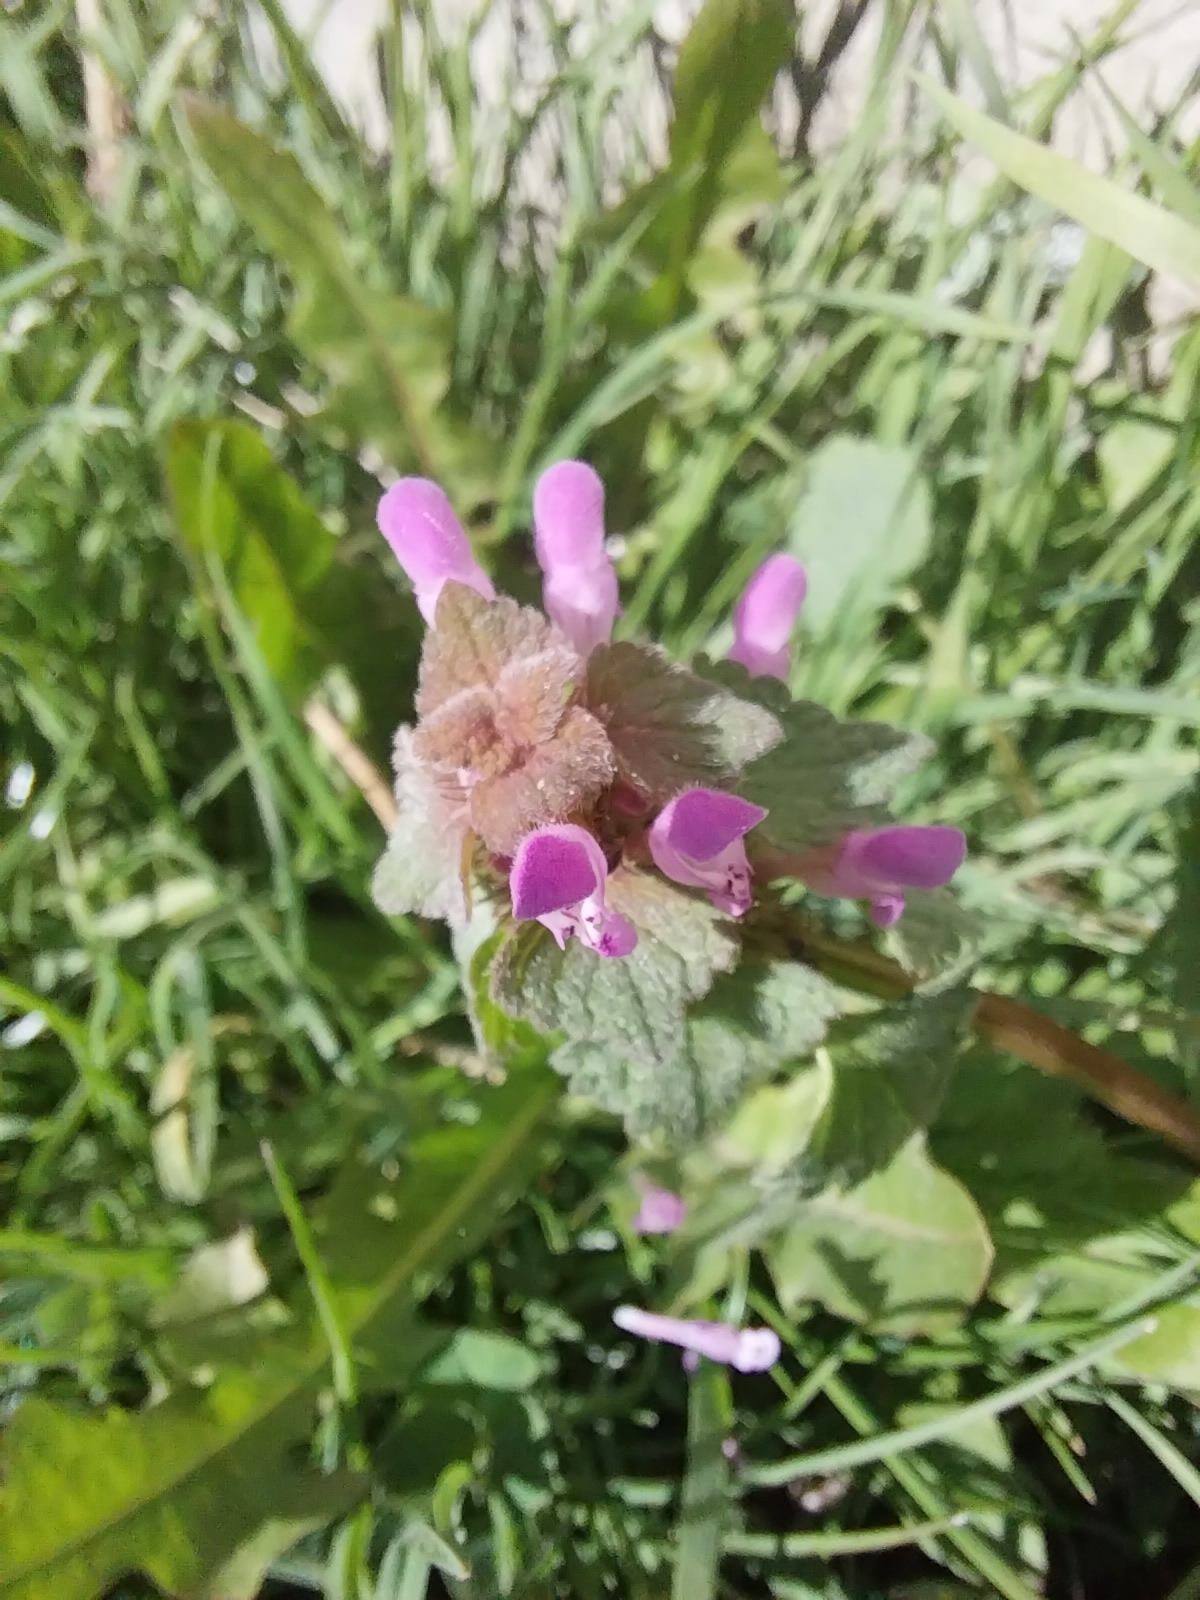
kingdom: Plantae
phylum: Tracheophyta
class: Magnoliopsida
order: Lamiales
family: Lamiaceae
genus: Lamium
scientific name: Lamium purpureum
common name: Red dead-nettle
